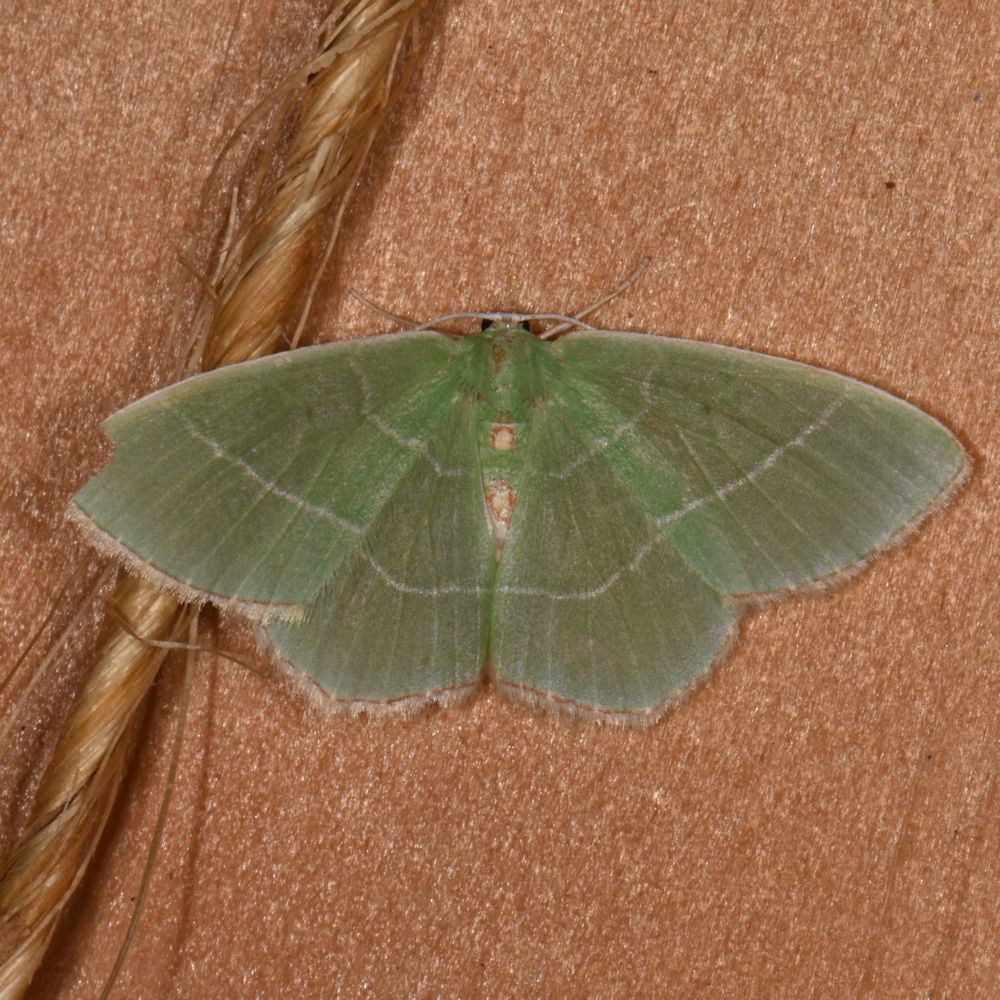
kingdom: Animalia
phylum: Arthropoda
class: Insecta
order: Lepidoptera
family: Geometridae
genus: Nemoria
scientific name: Nemoria bistriaria
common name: Red-fringed emerald
